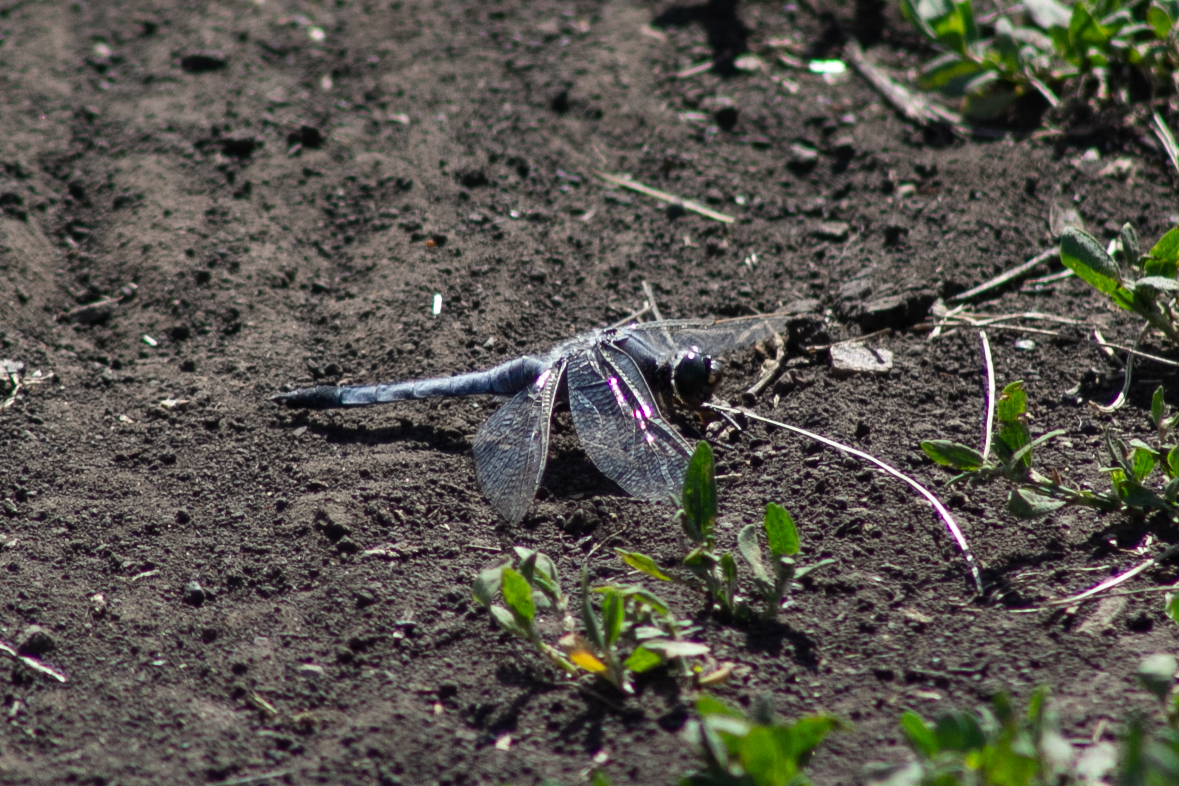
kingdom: Animalia
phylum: Arthropoda
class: Insecta
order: Odonata
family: Libellulidae
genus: Orthetrum
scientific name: Orthetrum cancellatum
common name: Black-tailed skimmer
